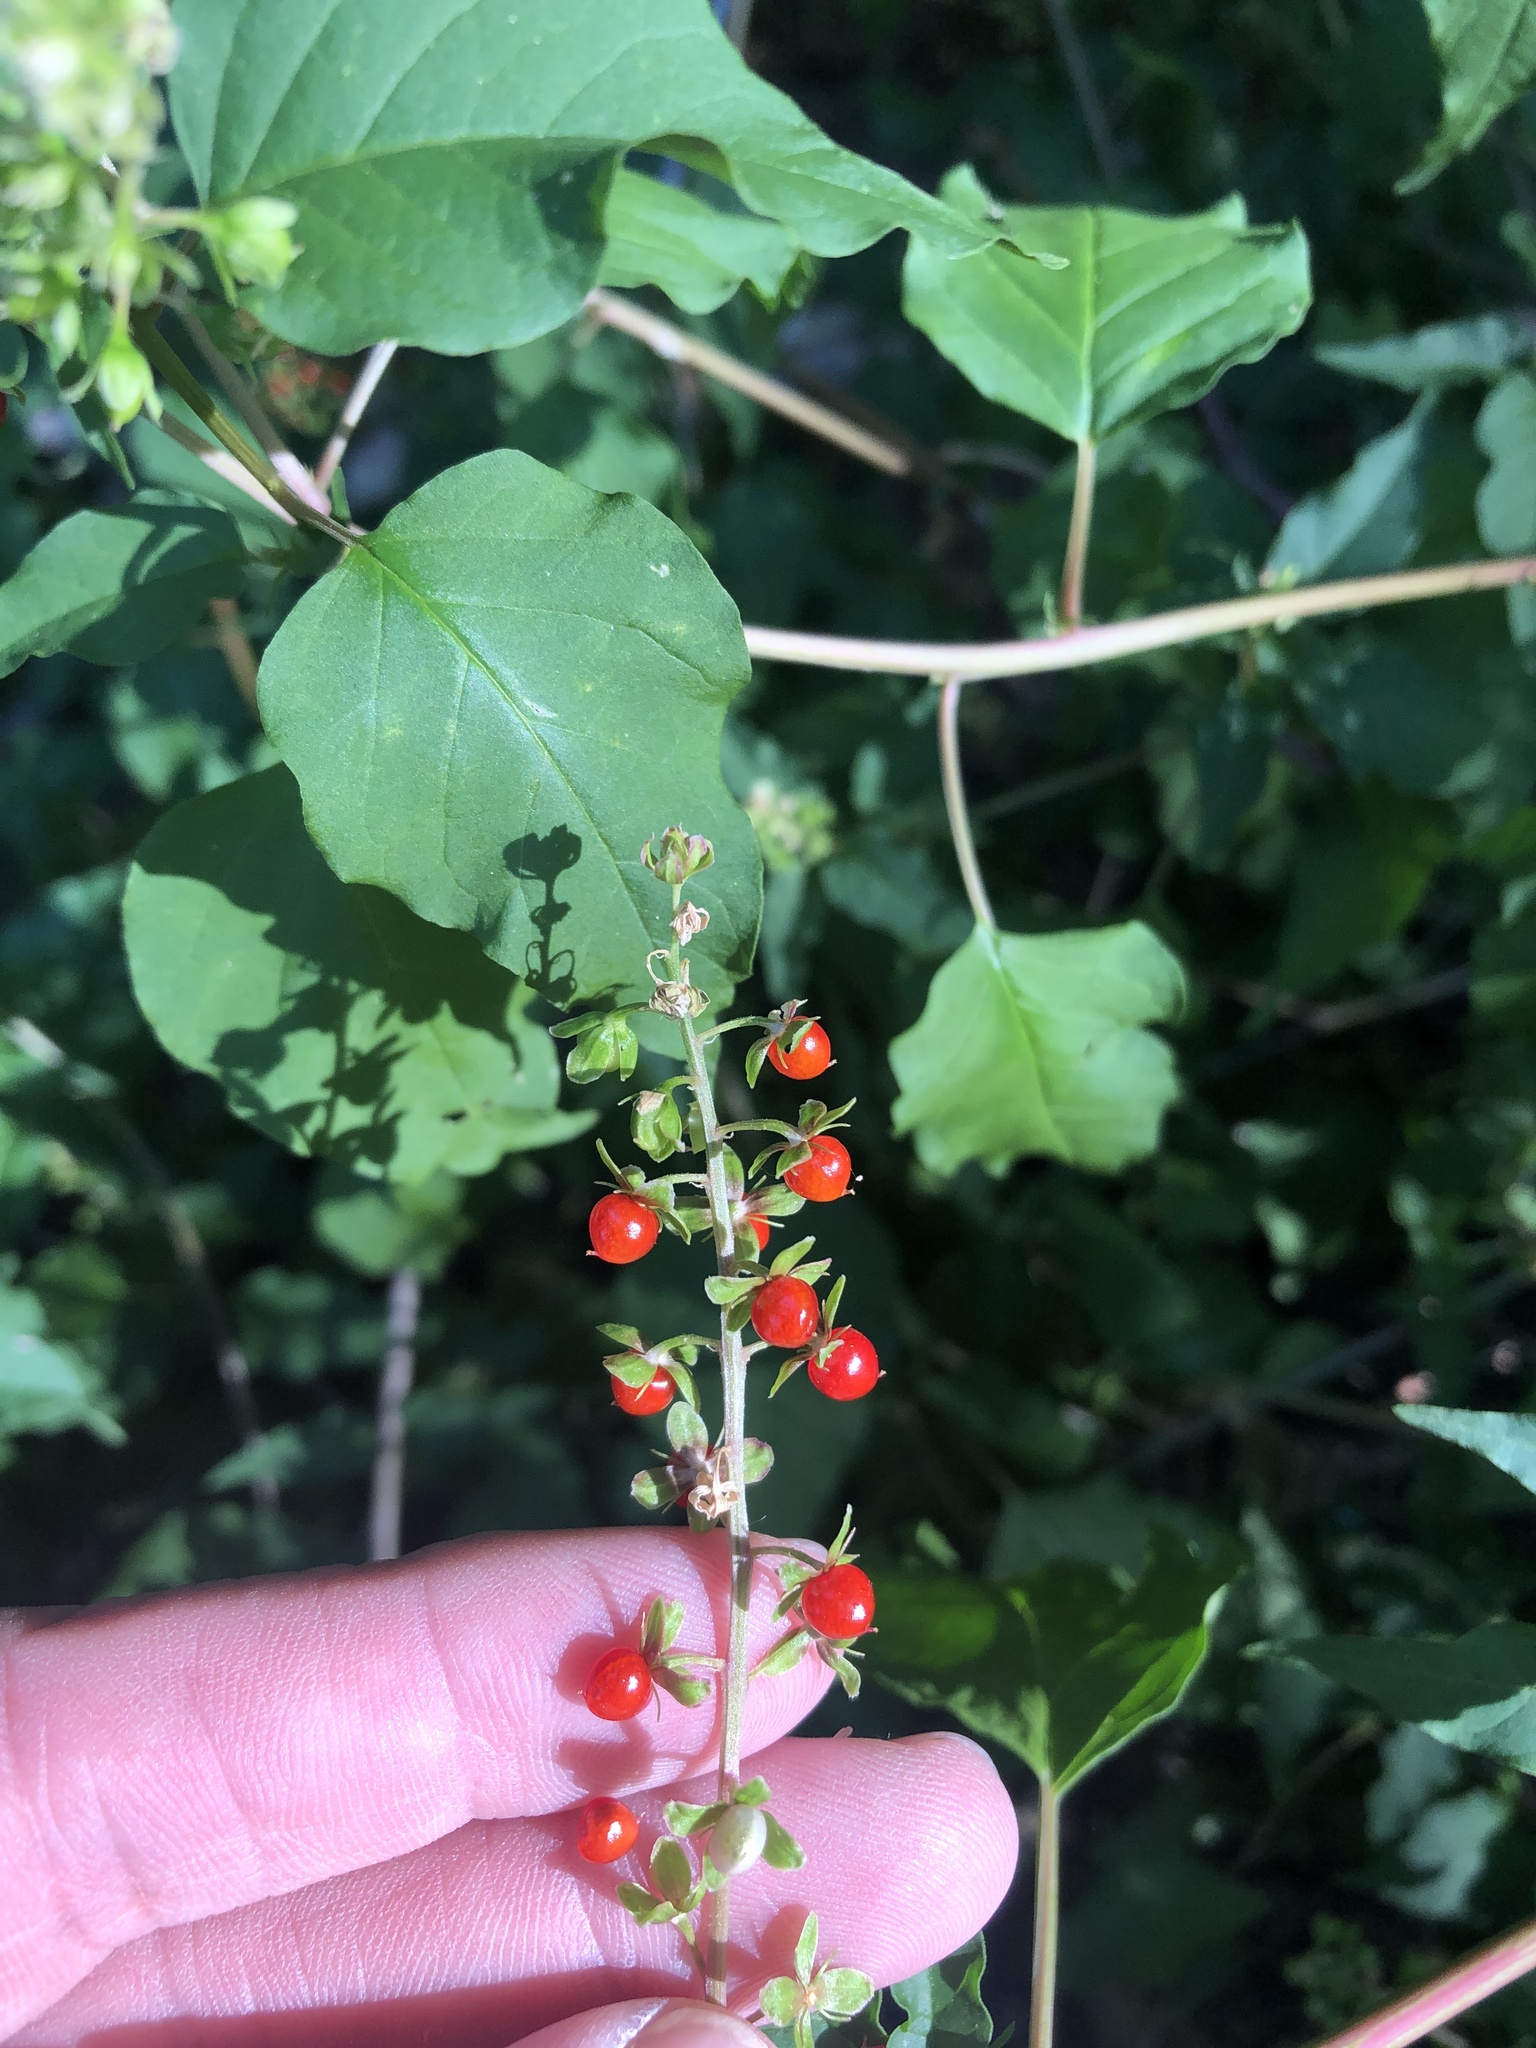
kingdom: Plantae
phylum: Tracheophyta
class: Magnoliopsida
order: Caryophyllales
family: Phytolaccaceae
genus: Rivina
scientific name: Rivina humilis
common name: Rougeplant
